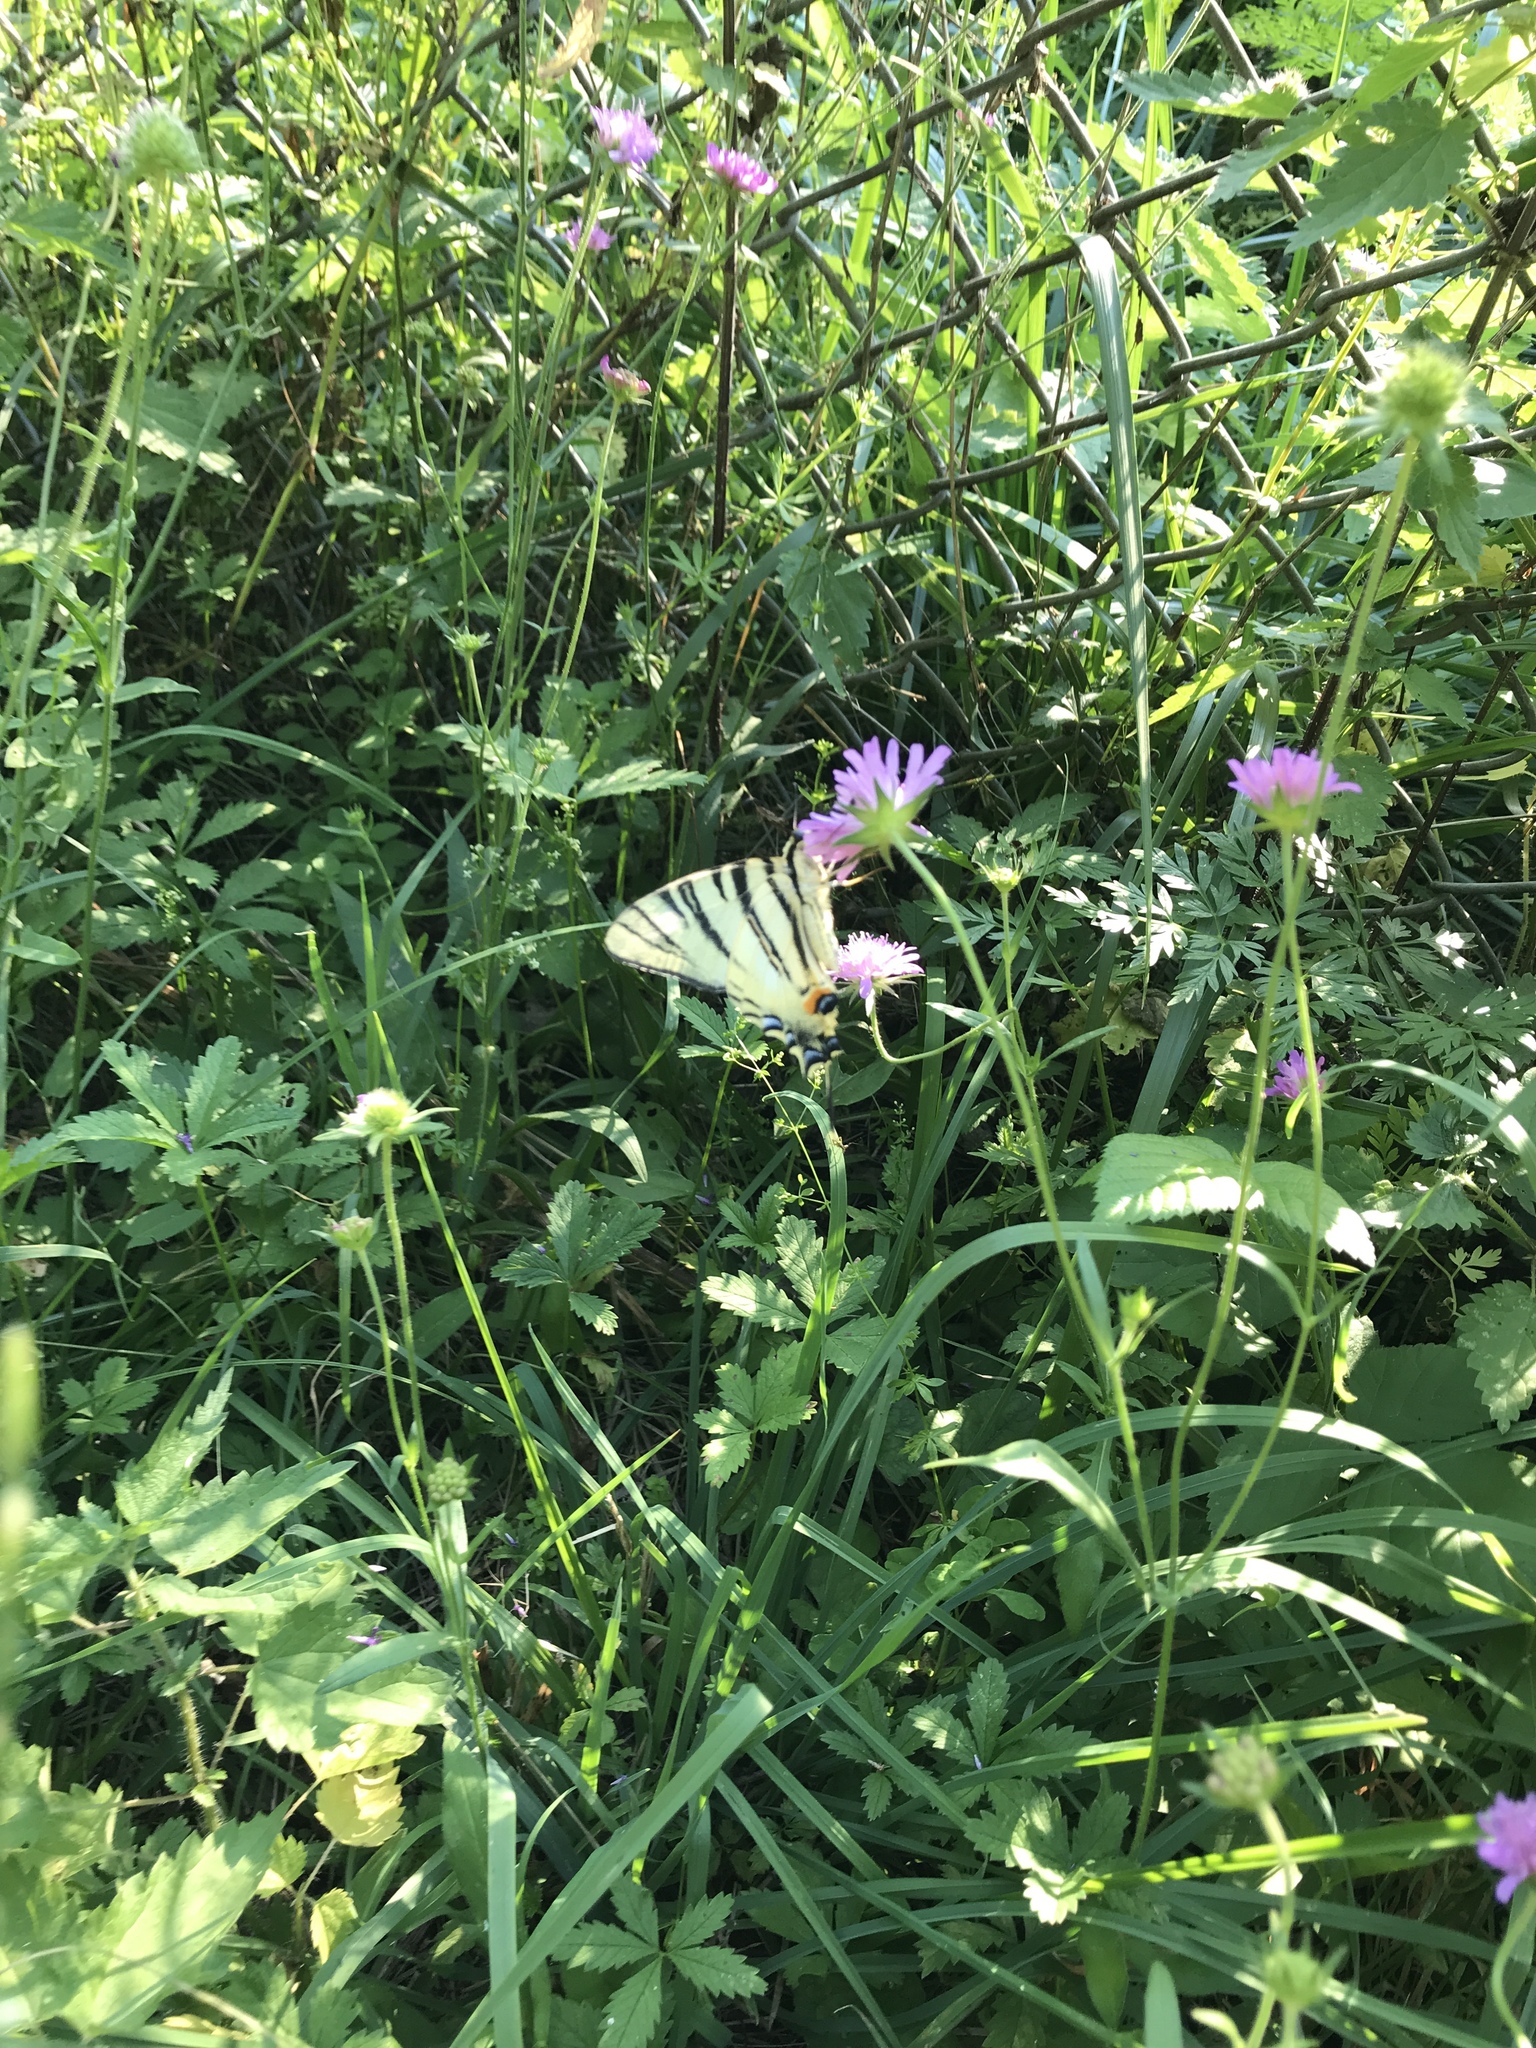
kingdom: Animalia
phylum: Arthropoda
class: Insecta
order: Lepidoptera
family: Papilionidae
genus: Iphiclides
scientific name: Iphiclides podalirius
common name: Scarce swallowtail
